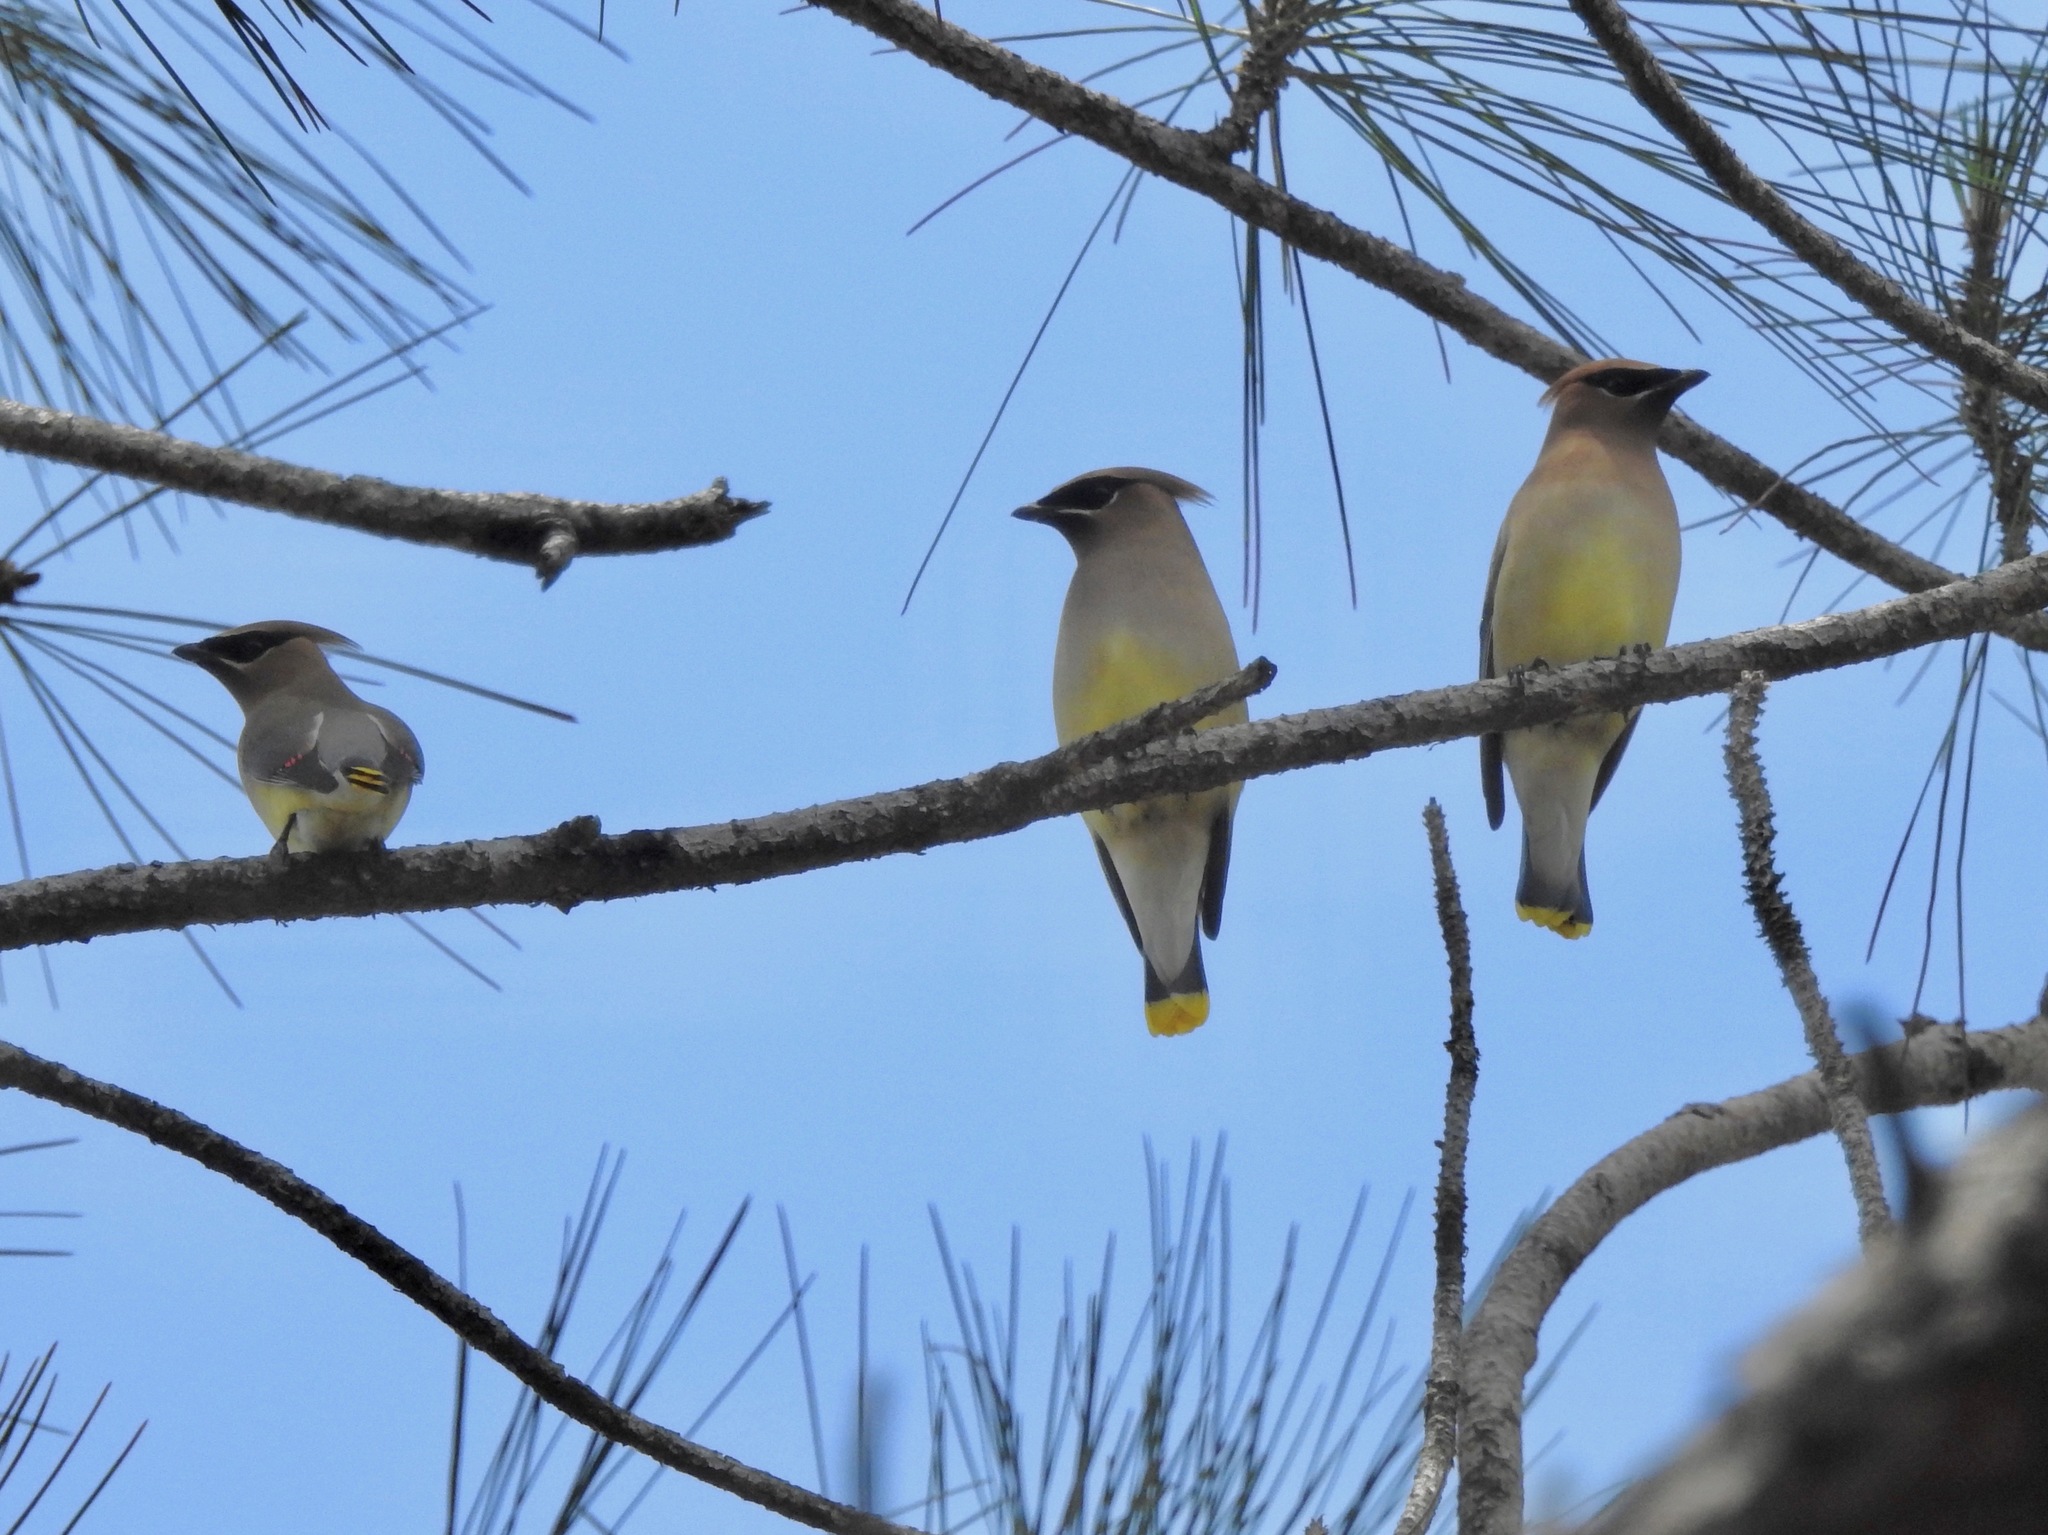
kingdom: Animalia
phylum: Chordata
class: Aves
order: Passeriformes
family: Bombycillidae
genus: Bombycilla
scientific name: Bombycilla cedrorum
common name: Cedar waxwing
